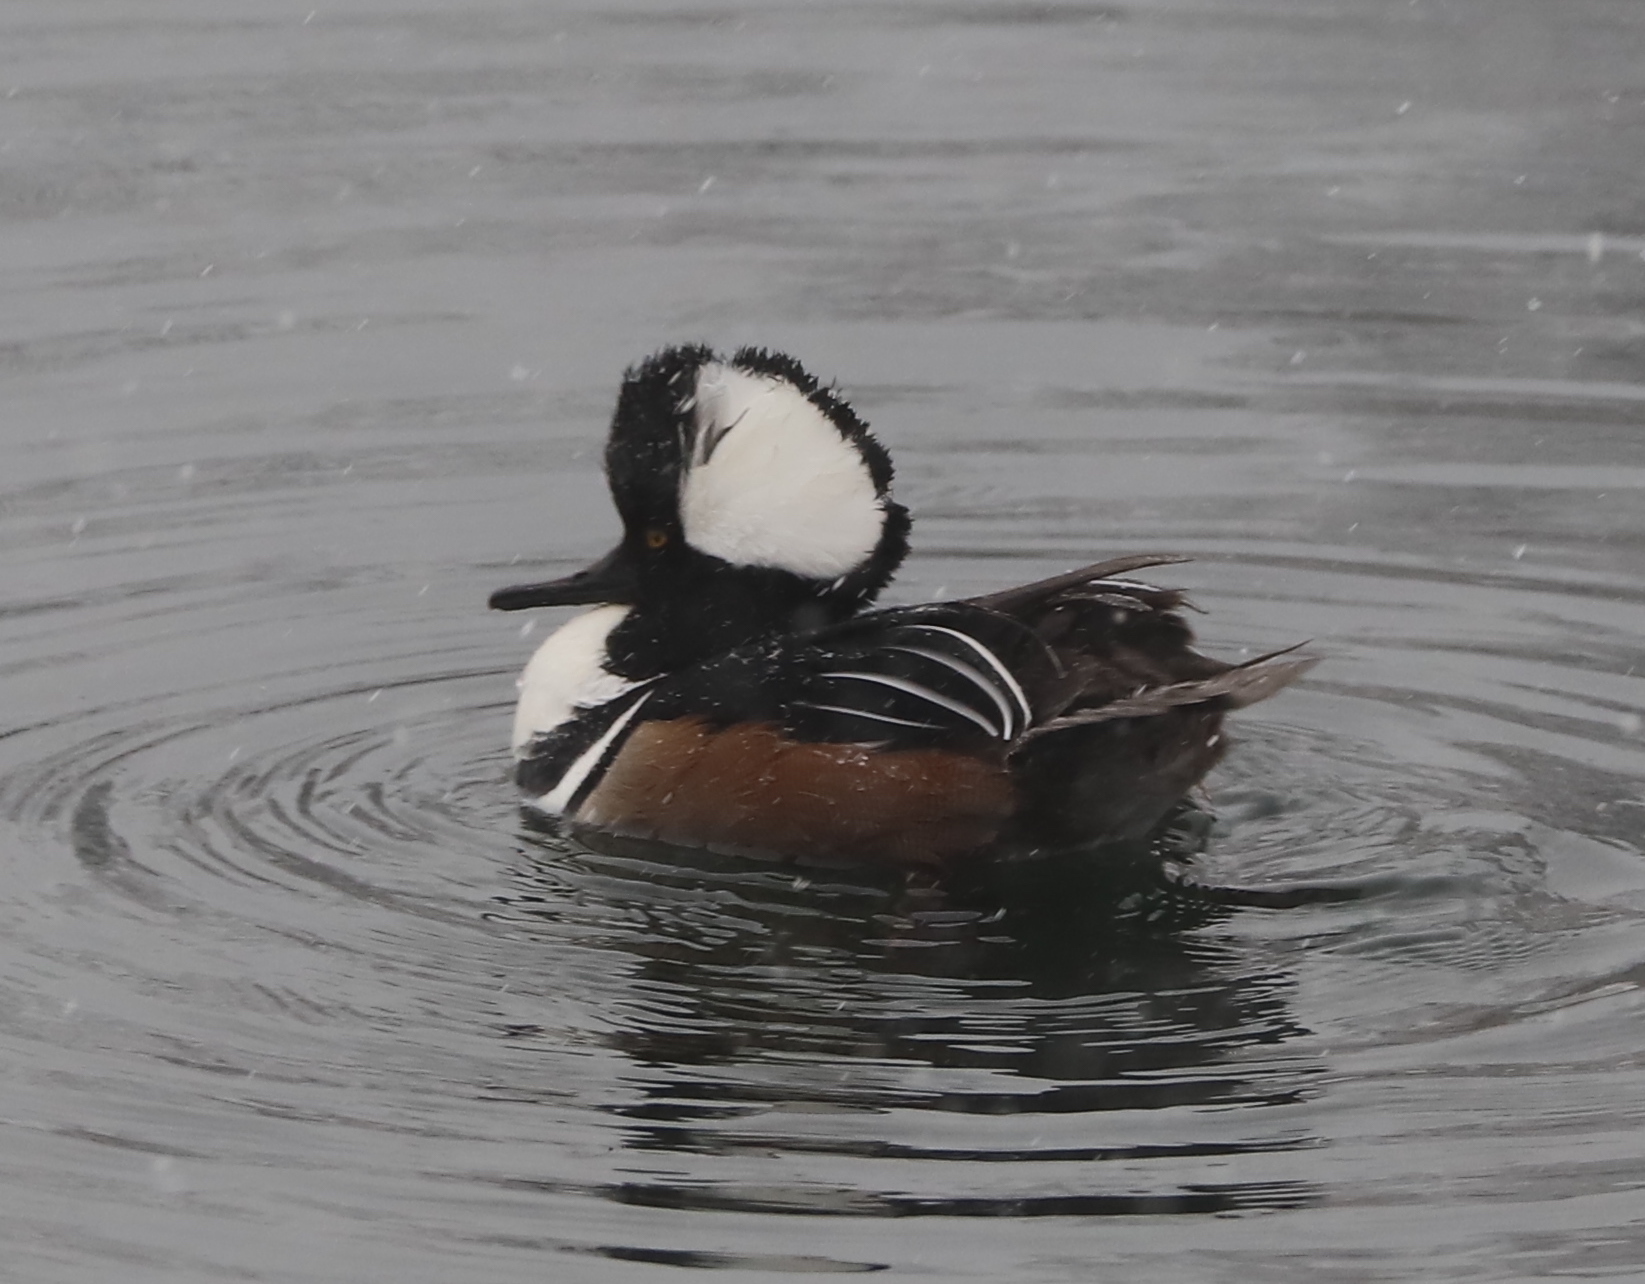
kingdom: Animalia
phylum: Chordata
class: Aves
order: Anseriformes
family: Anatidae
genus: Lophodytes
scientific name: Lophodytes cucullatus
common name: Hooded merganser
